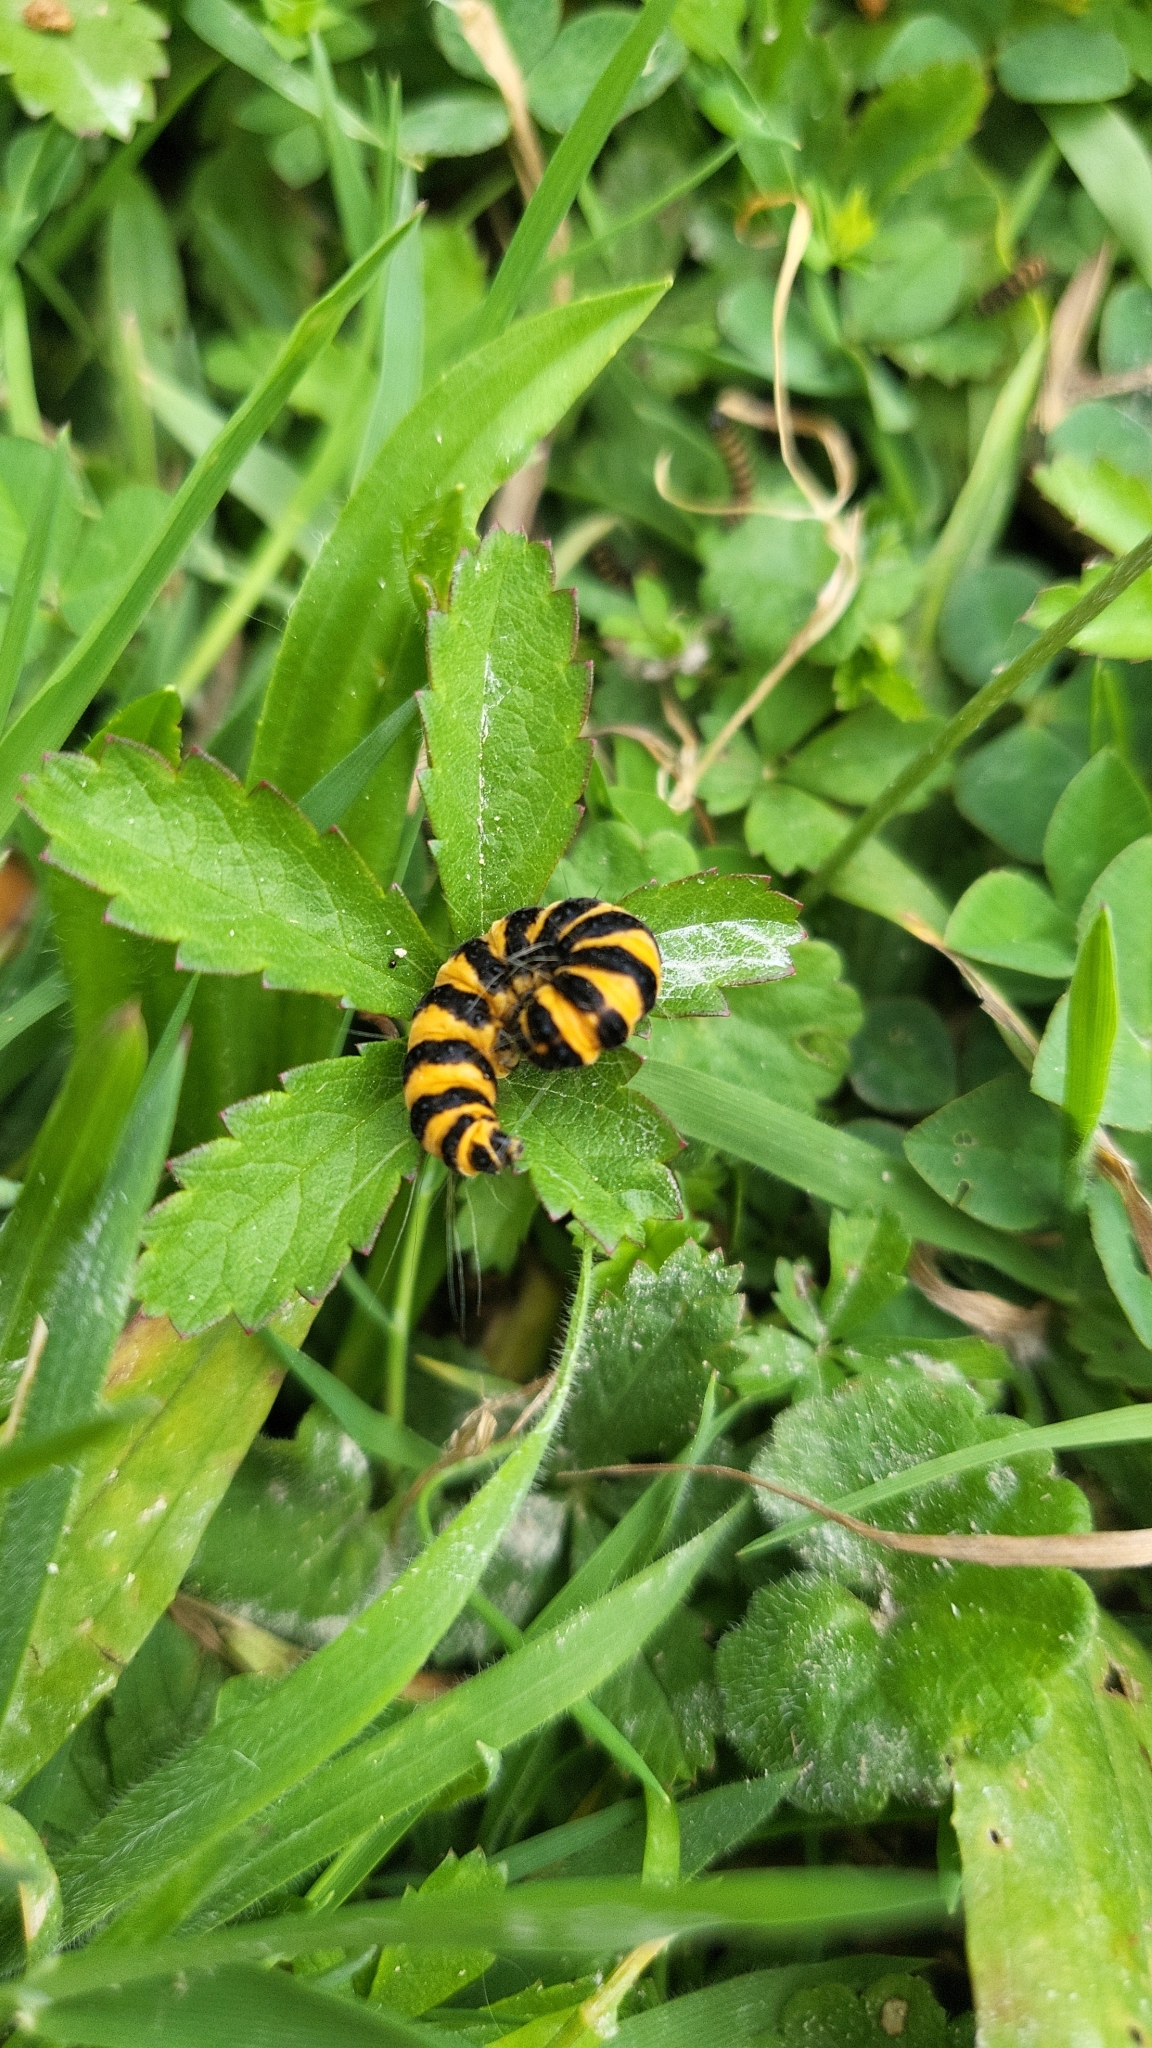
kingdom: Animalia
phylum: Arthropoda
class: Insecta
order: Lepidoptera
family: Erebidae
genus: Tyria
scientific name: Tyria jacobaeae
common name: Cinnabar
